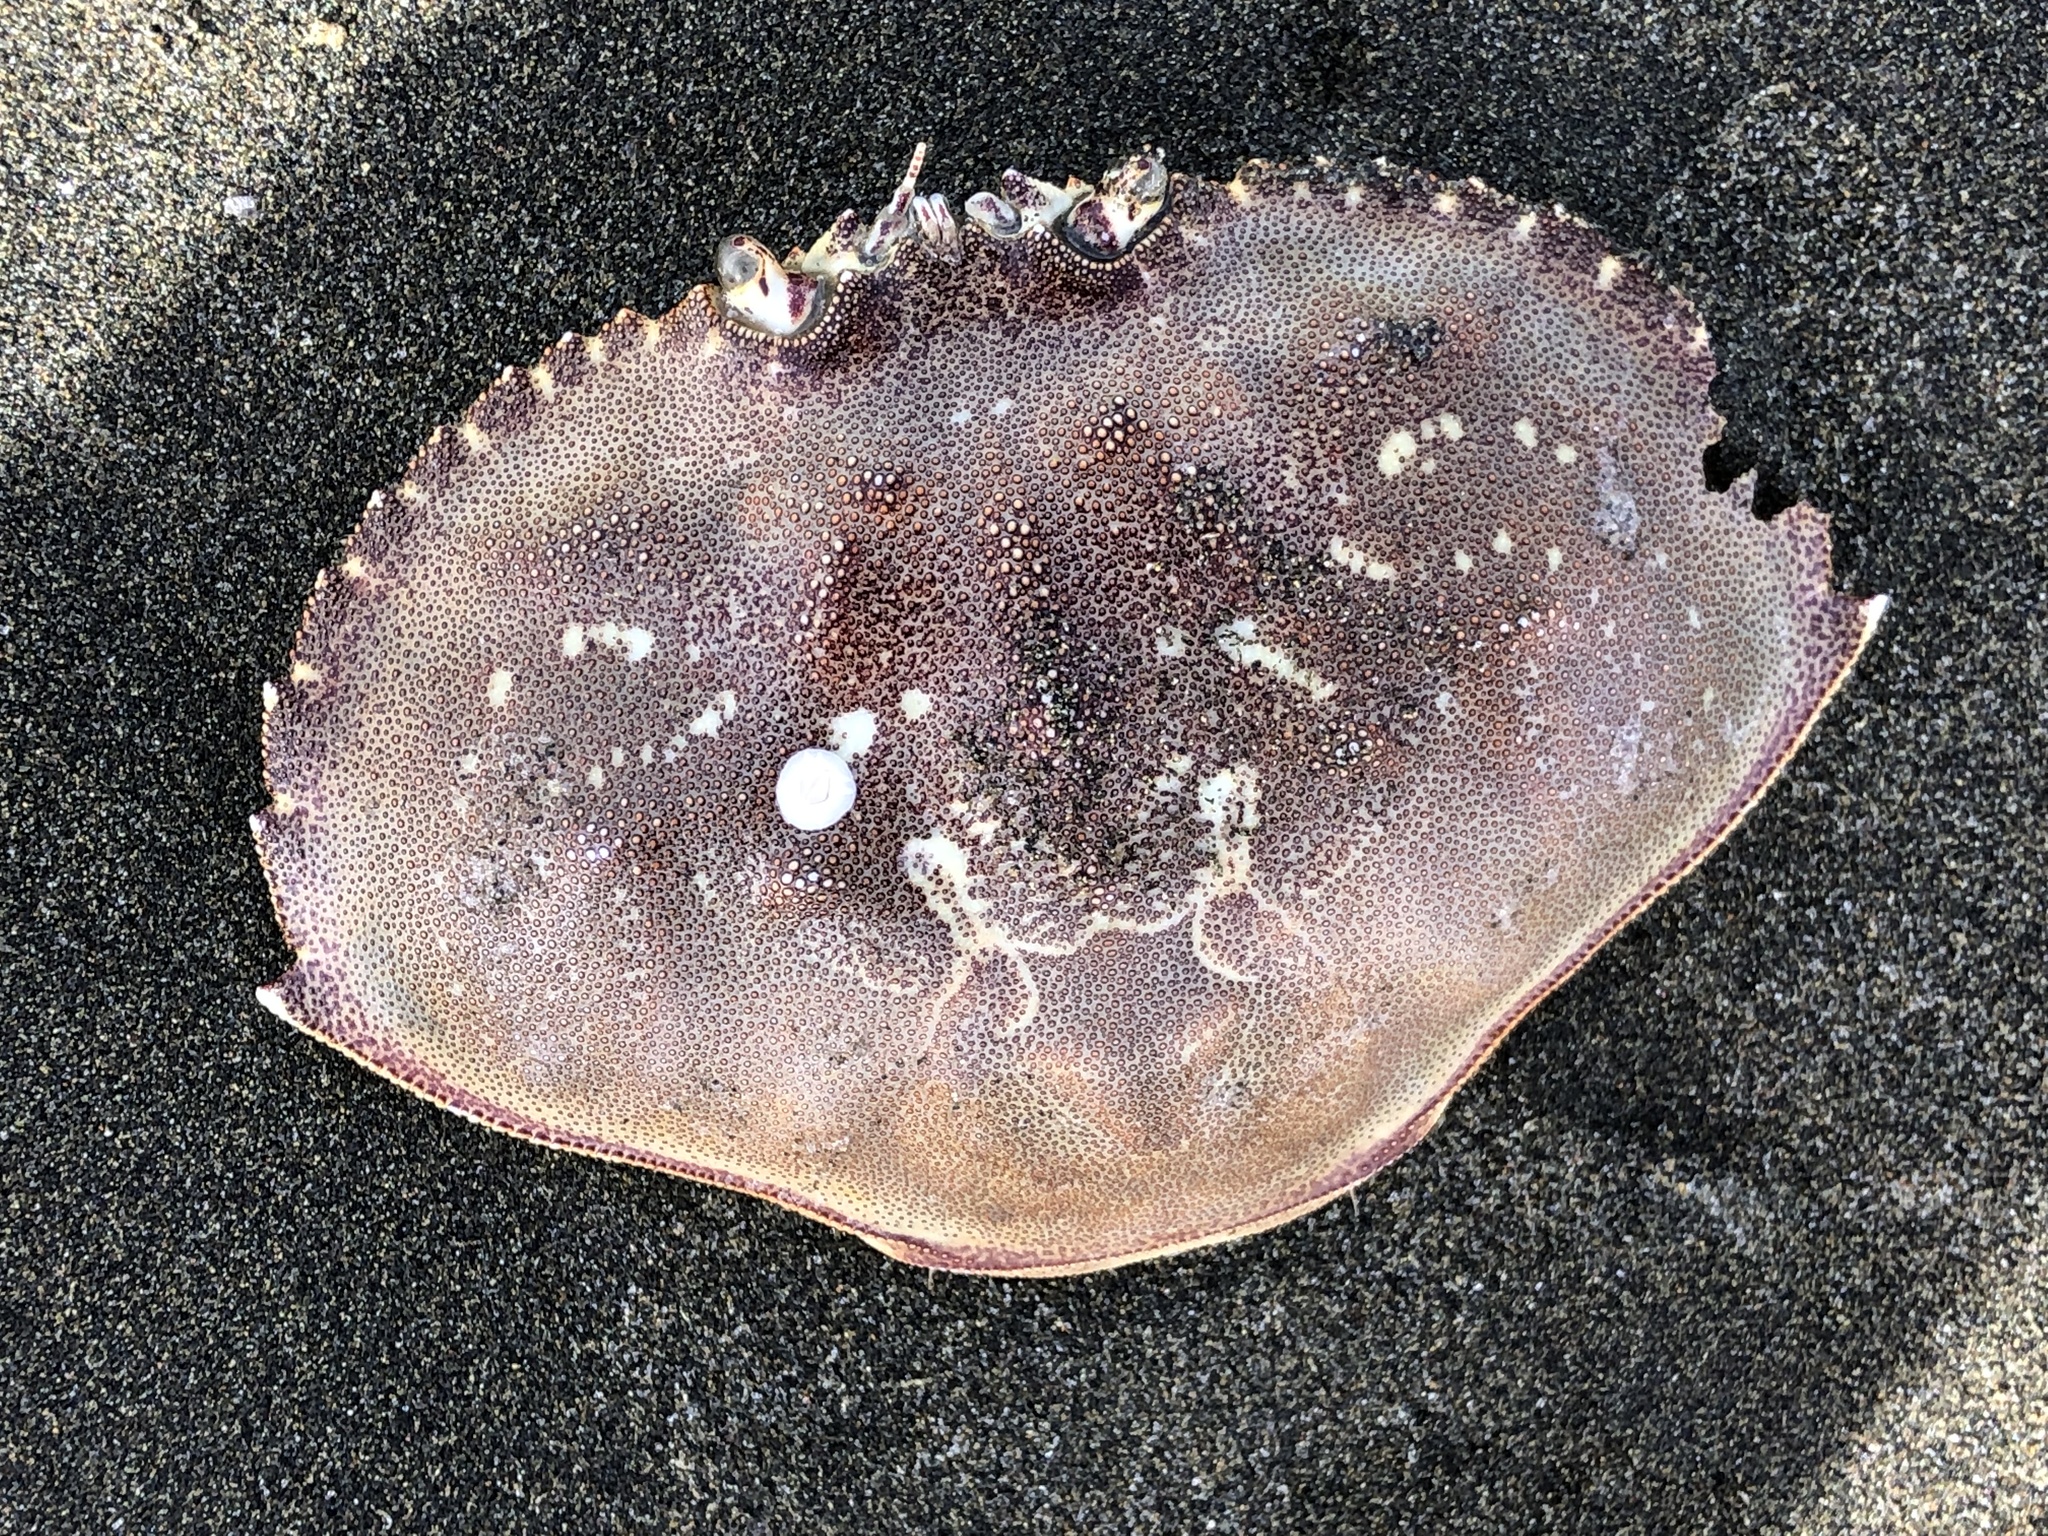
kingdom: Animalia
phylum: Arthropoda
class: Malacostraca
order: Decapoda
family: Cancridae
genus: Metacarcinus
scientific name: Metacarcinus magister
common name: Californian crab
